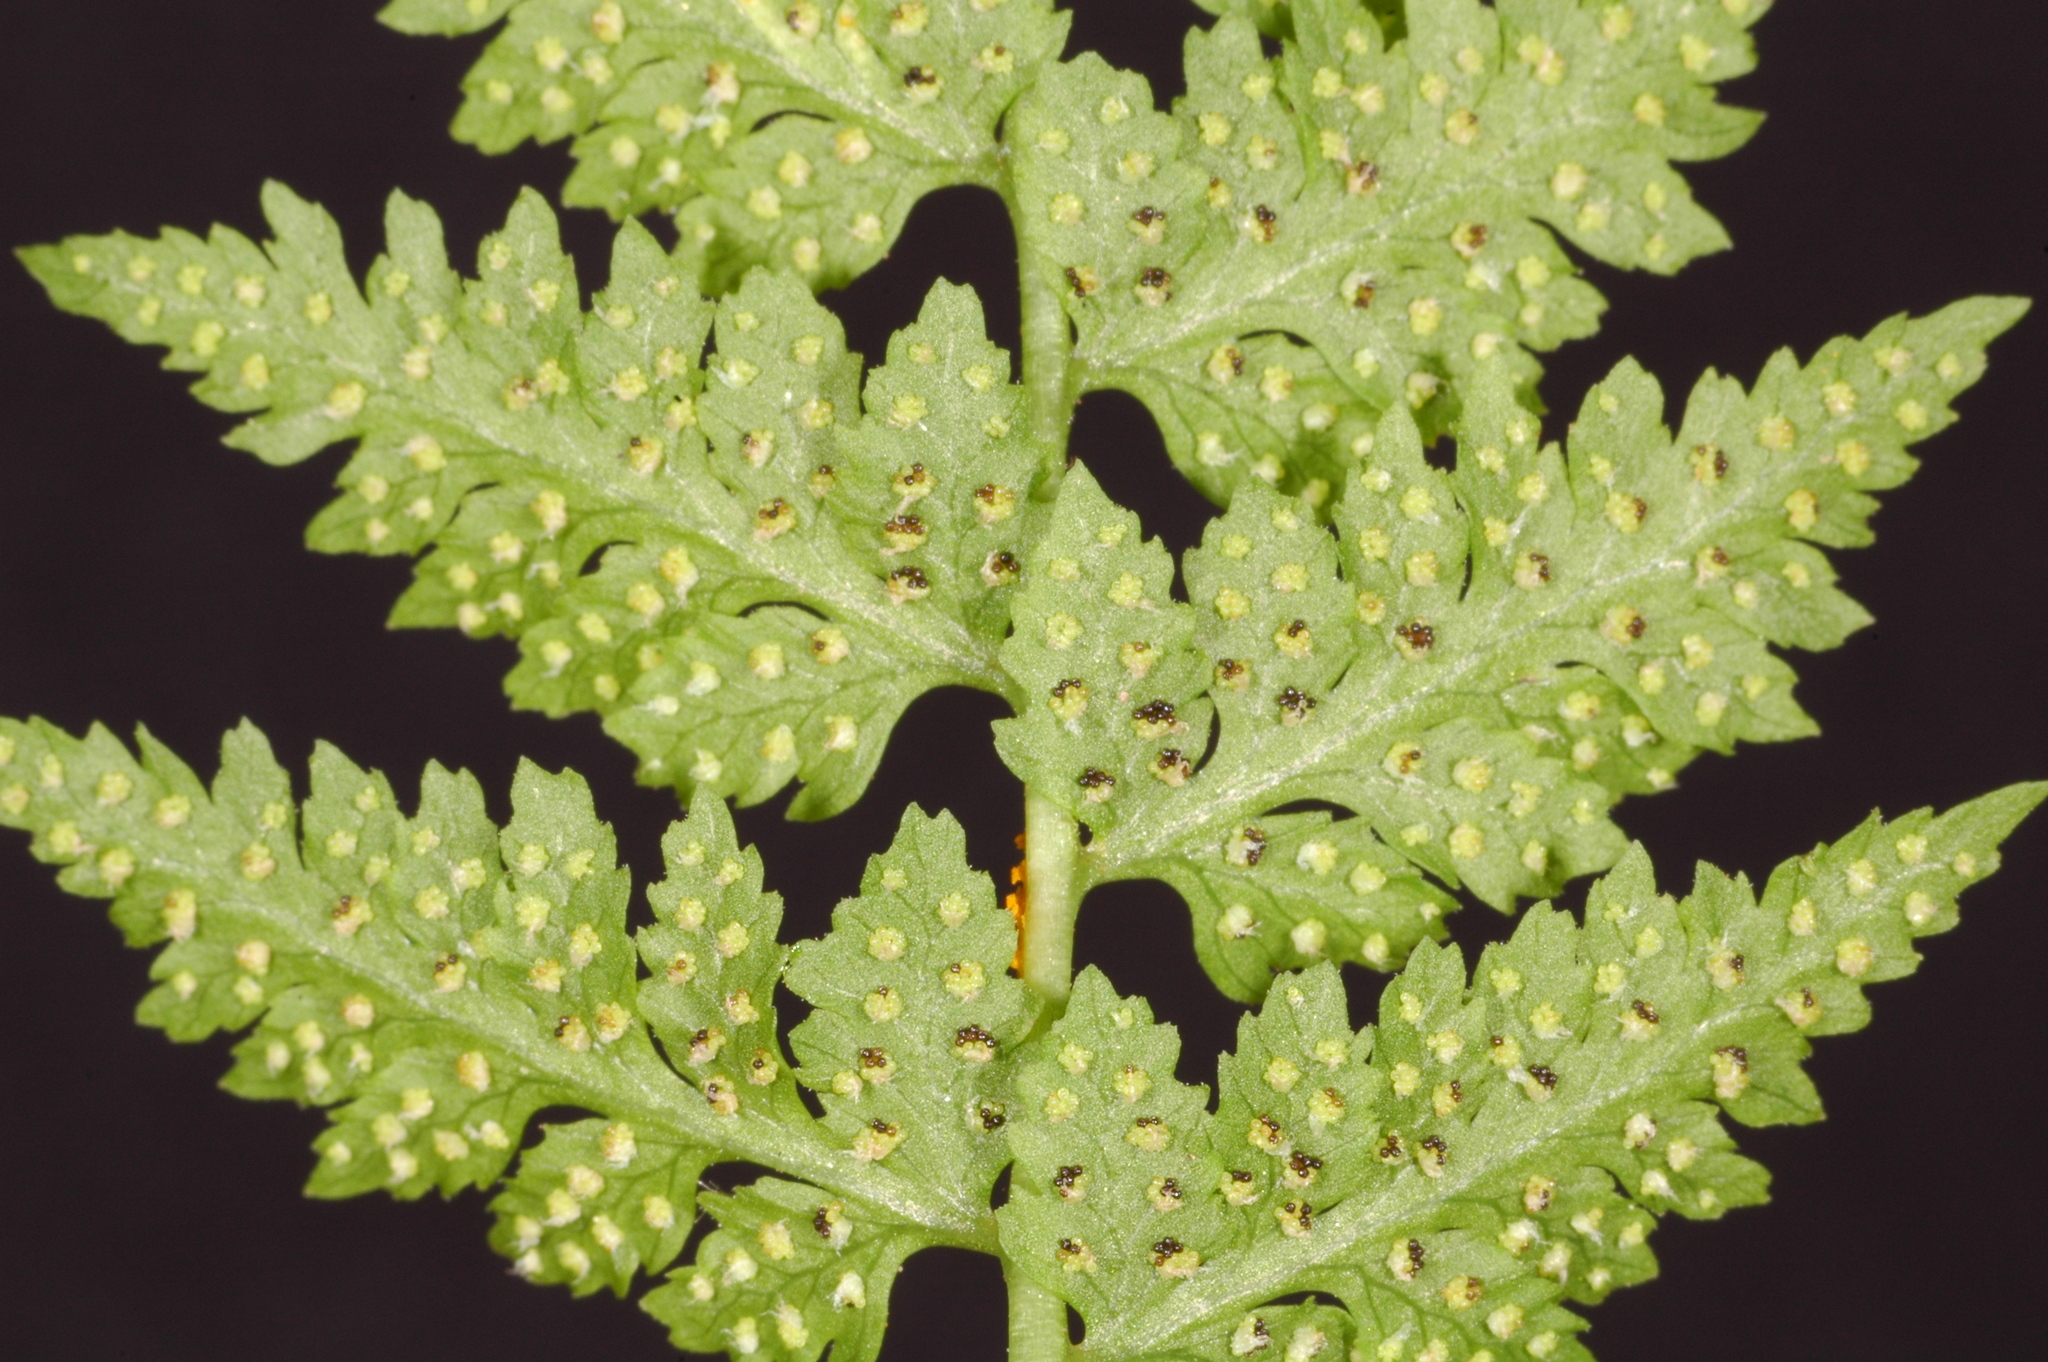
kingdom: Plantae
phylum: Tracheophyta
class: Polypodiopsida
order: Polypodiales
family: Cystopteridaceae
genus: Cystopteris
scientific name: Cystopteris fragilis
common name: Brittle bladder fern
